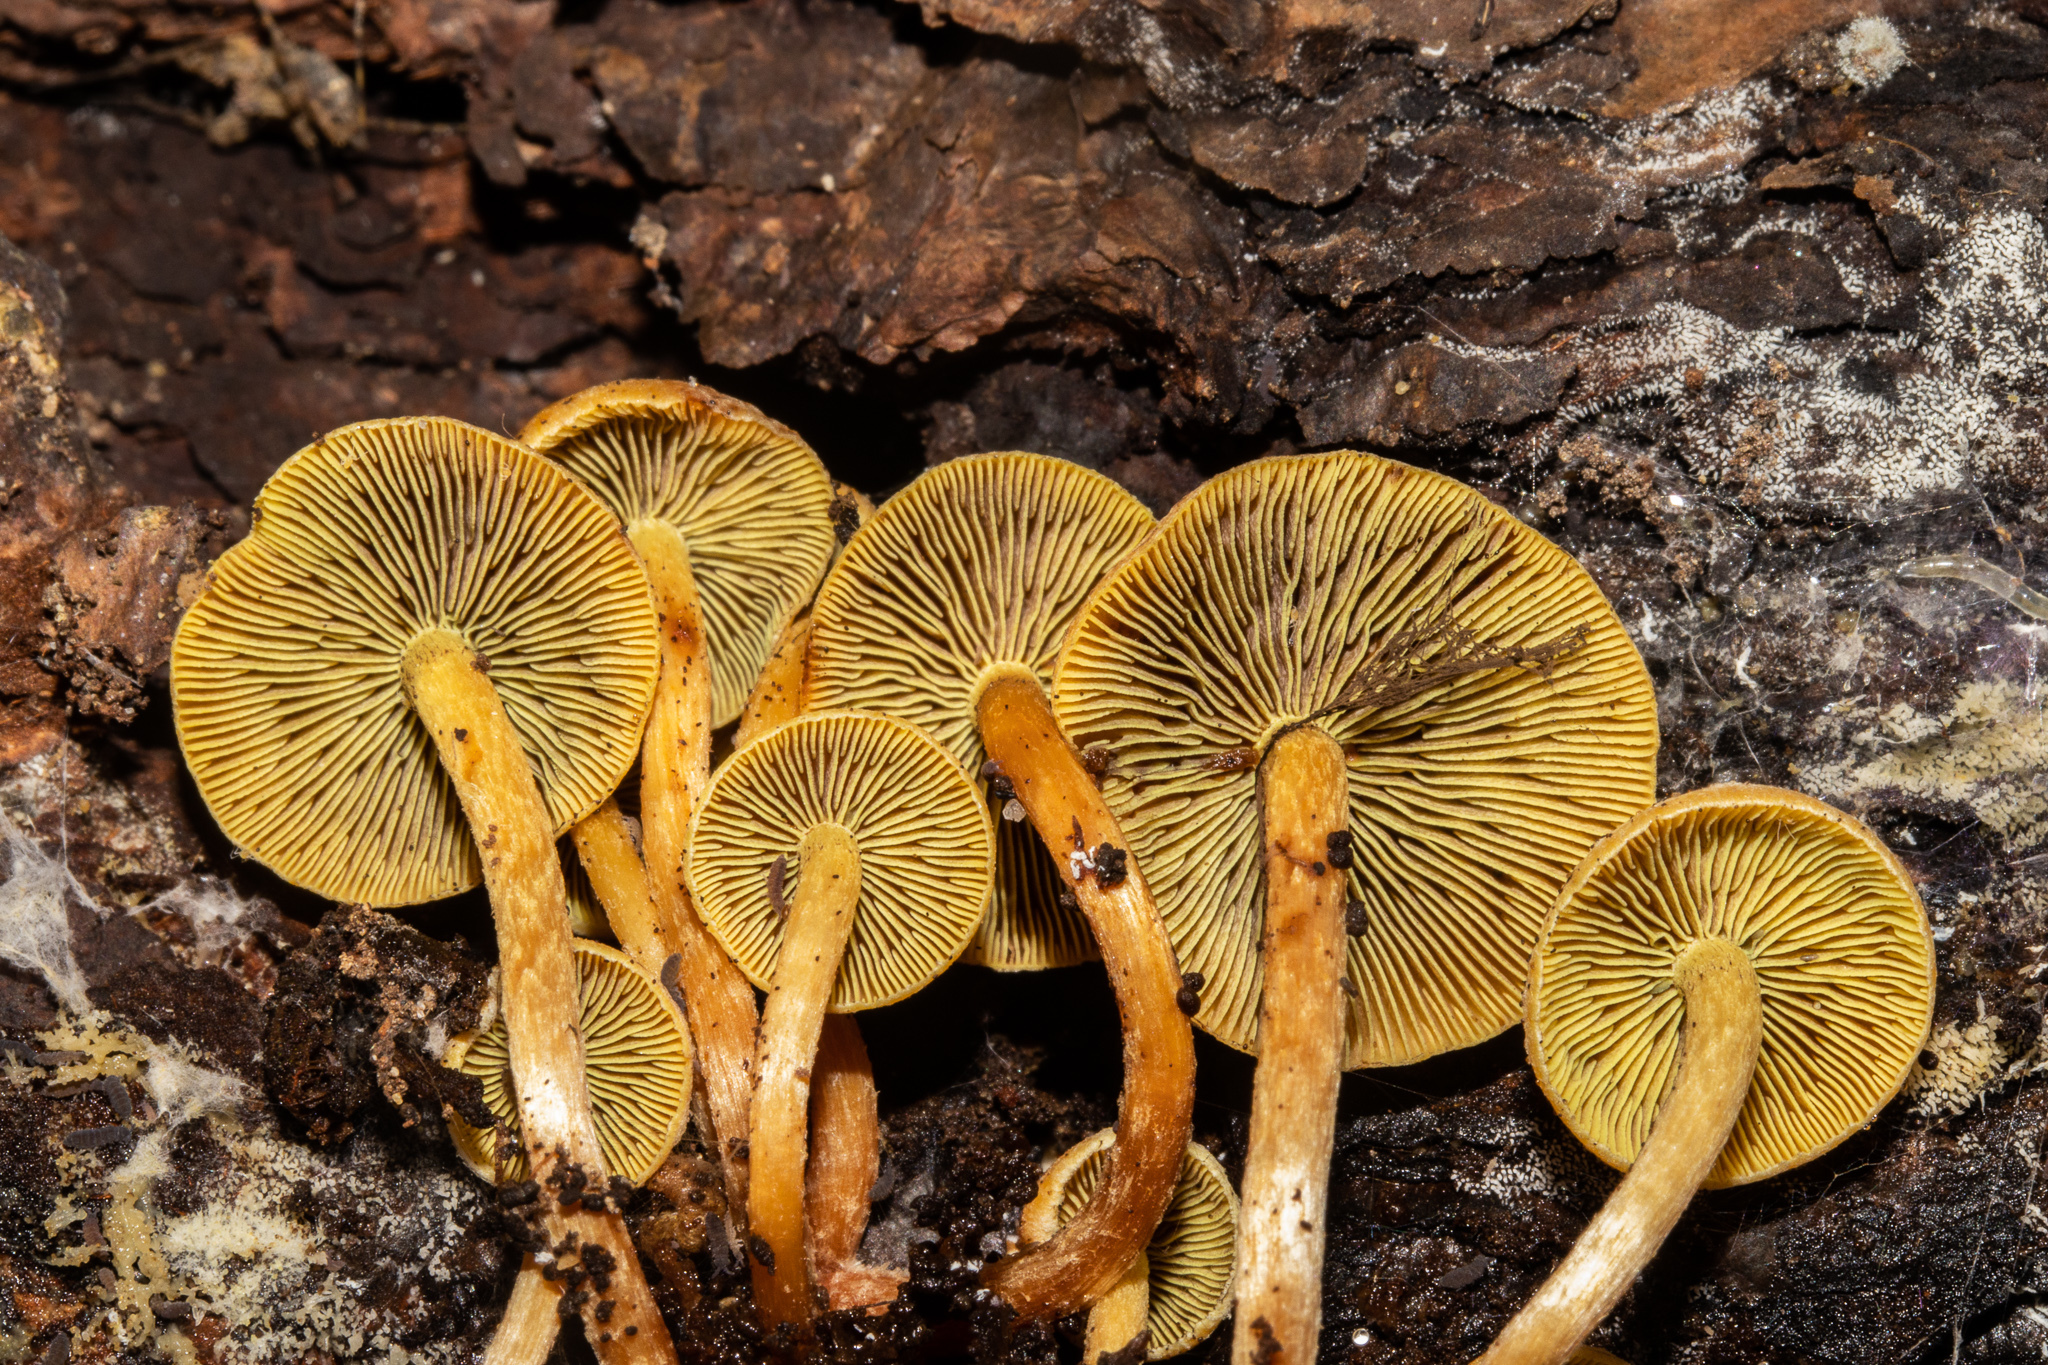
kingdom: Fungi
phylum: Basidiomycota
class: Agaricomycetes
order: Agaricales
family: Strophariaceae
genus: Hypholoma
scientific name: Hypholoma acutum
